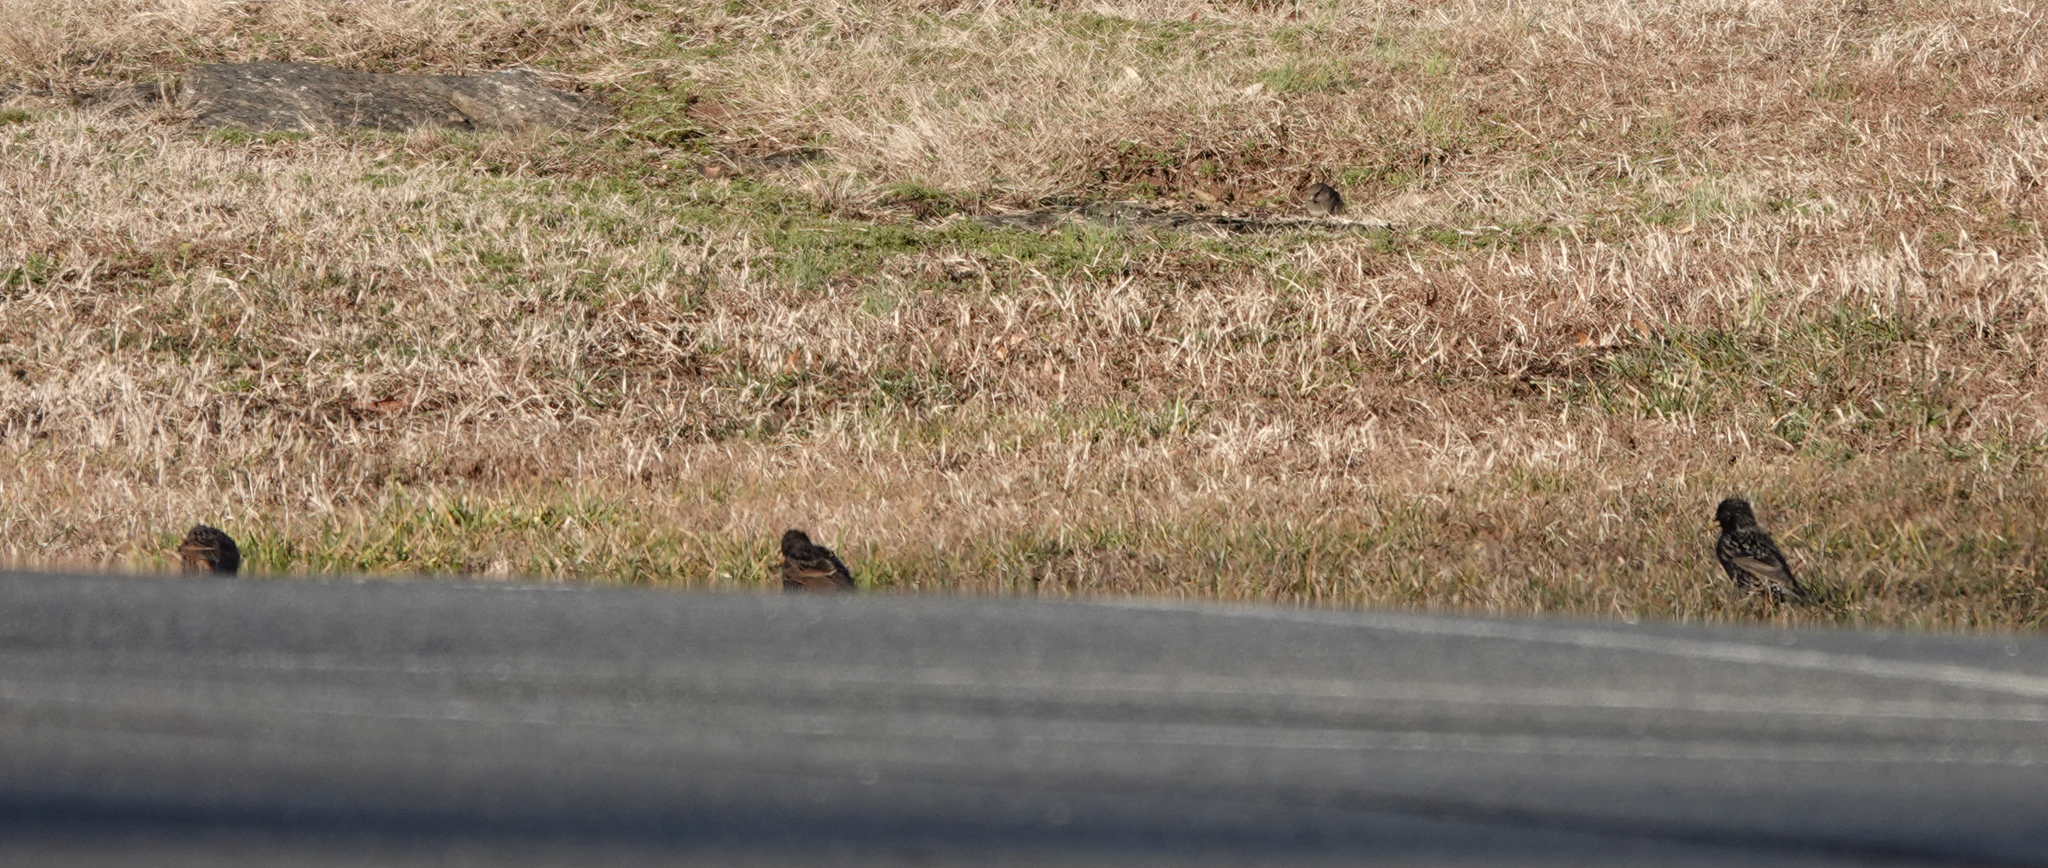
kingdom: Animalia
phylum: Chordata
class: Aves
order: Passeriformes
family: Sturnidae
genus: Sturnus
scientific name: Sturnus vulgaris
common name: Common starling
